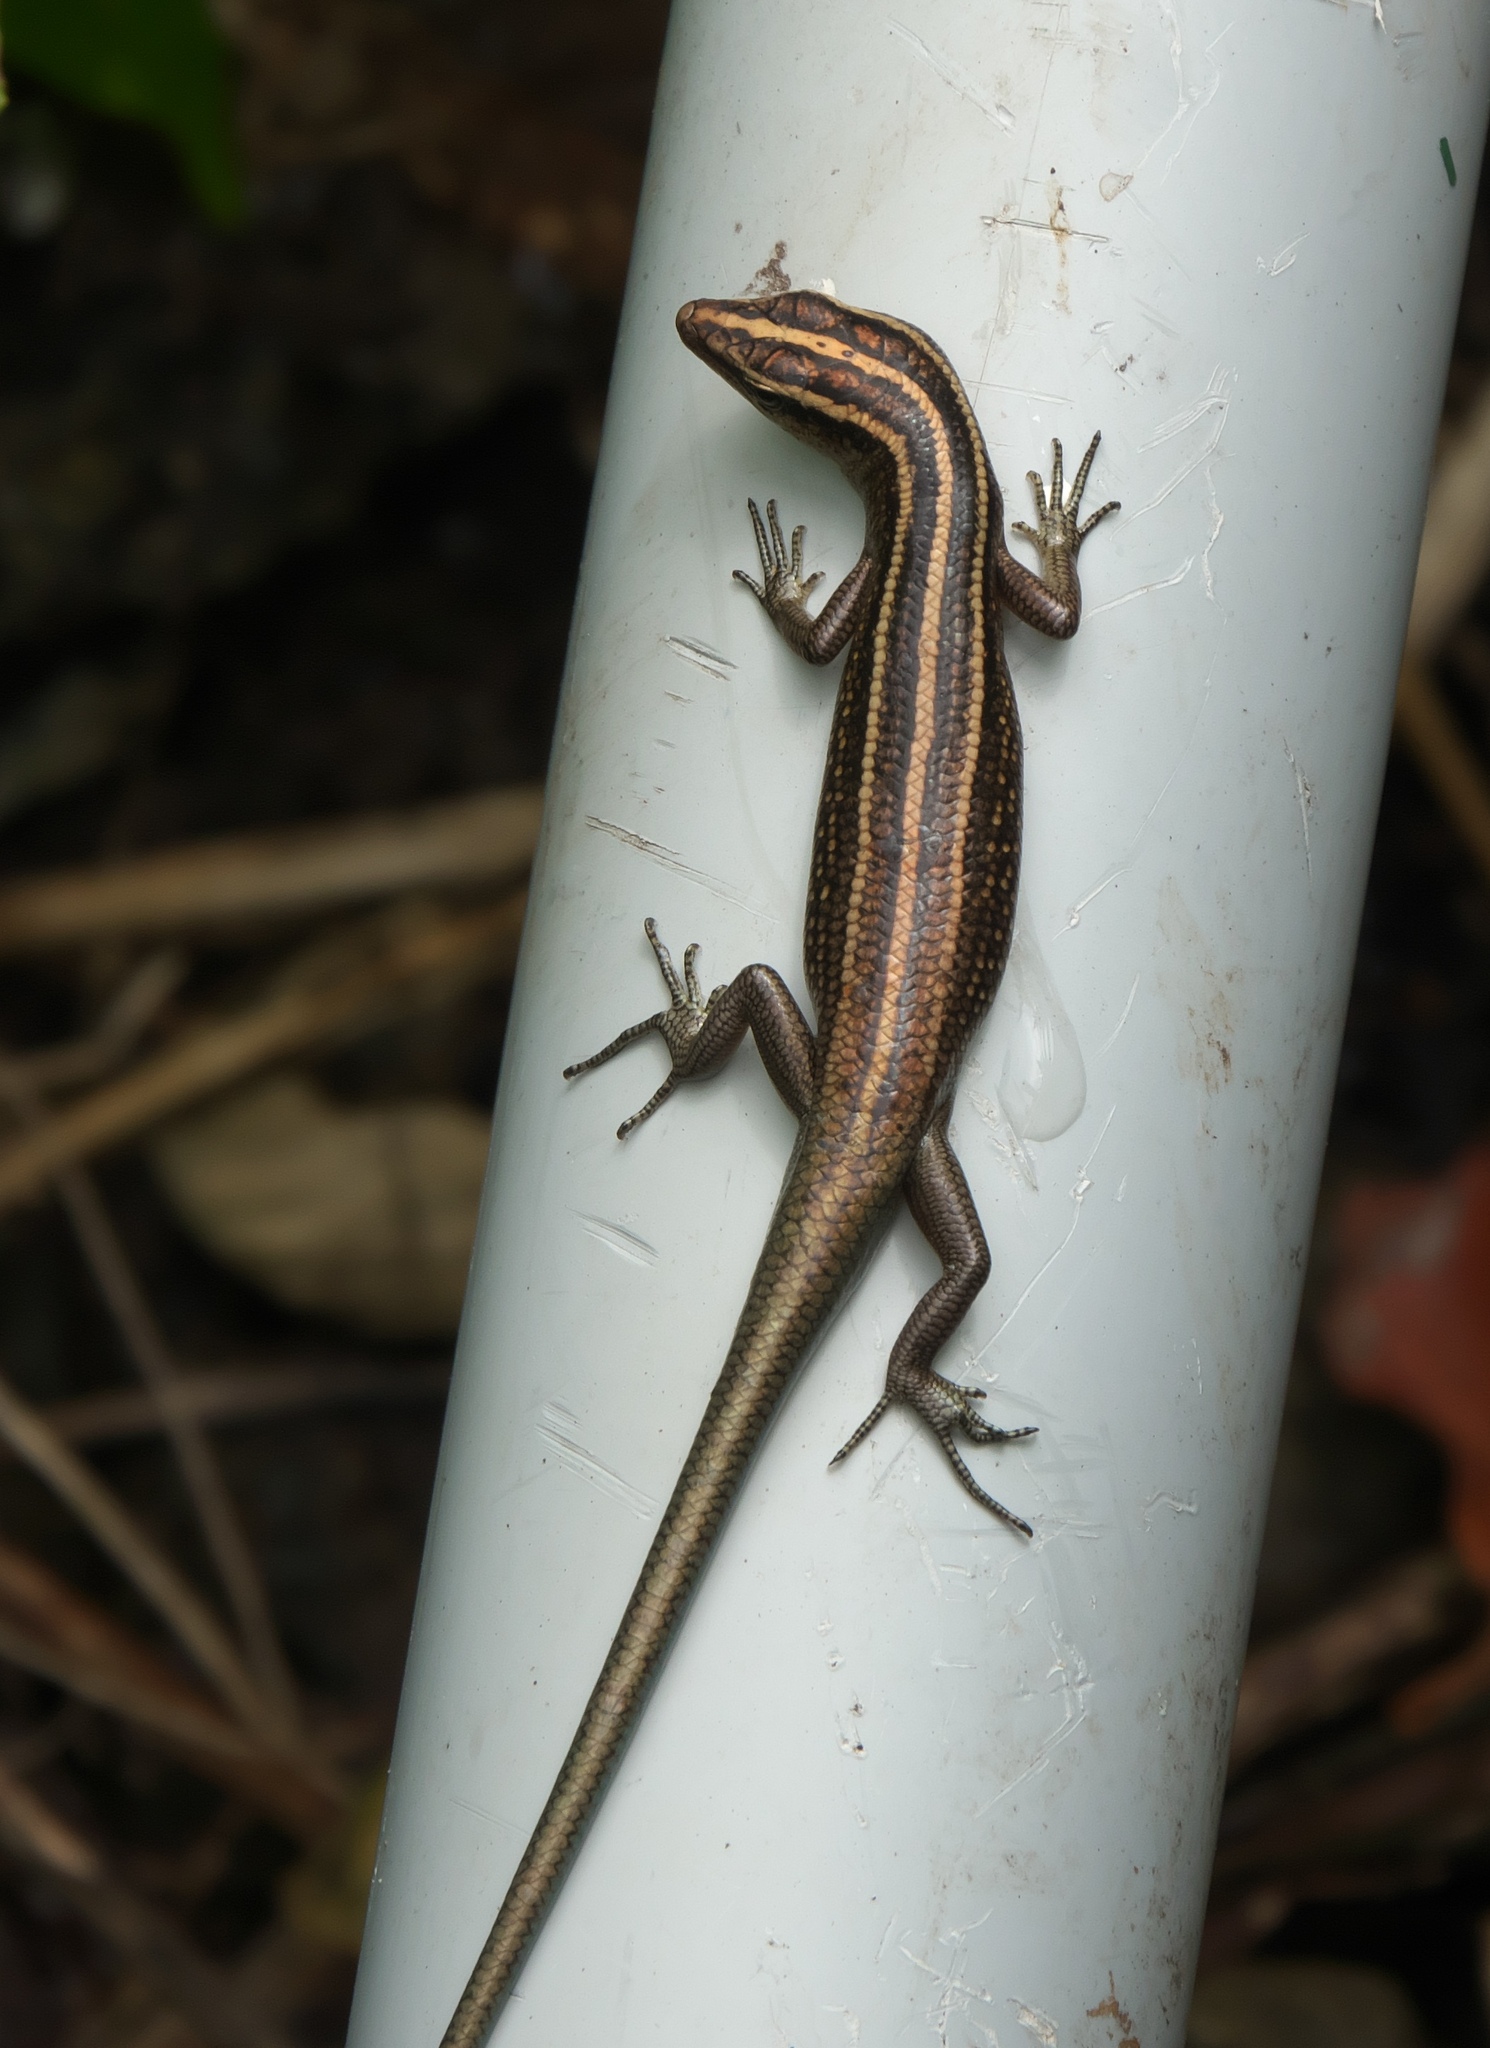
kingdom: Animalia
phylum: Chordata
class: Squamata
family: Scincidae
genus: Emoia
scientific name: Emoia cyanura
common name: Copper-tailed skink
